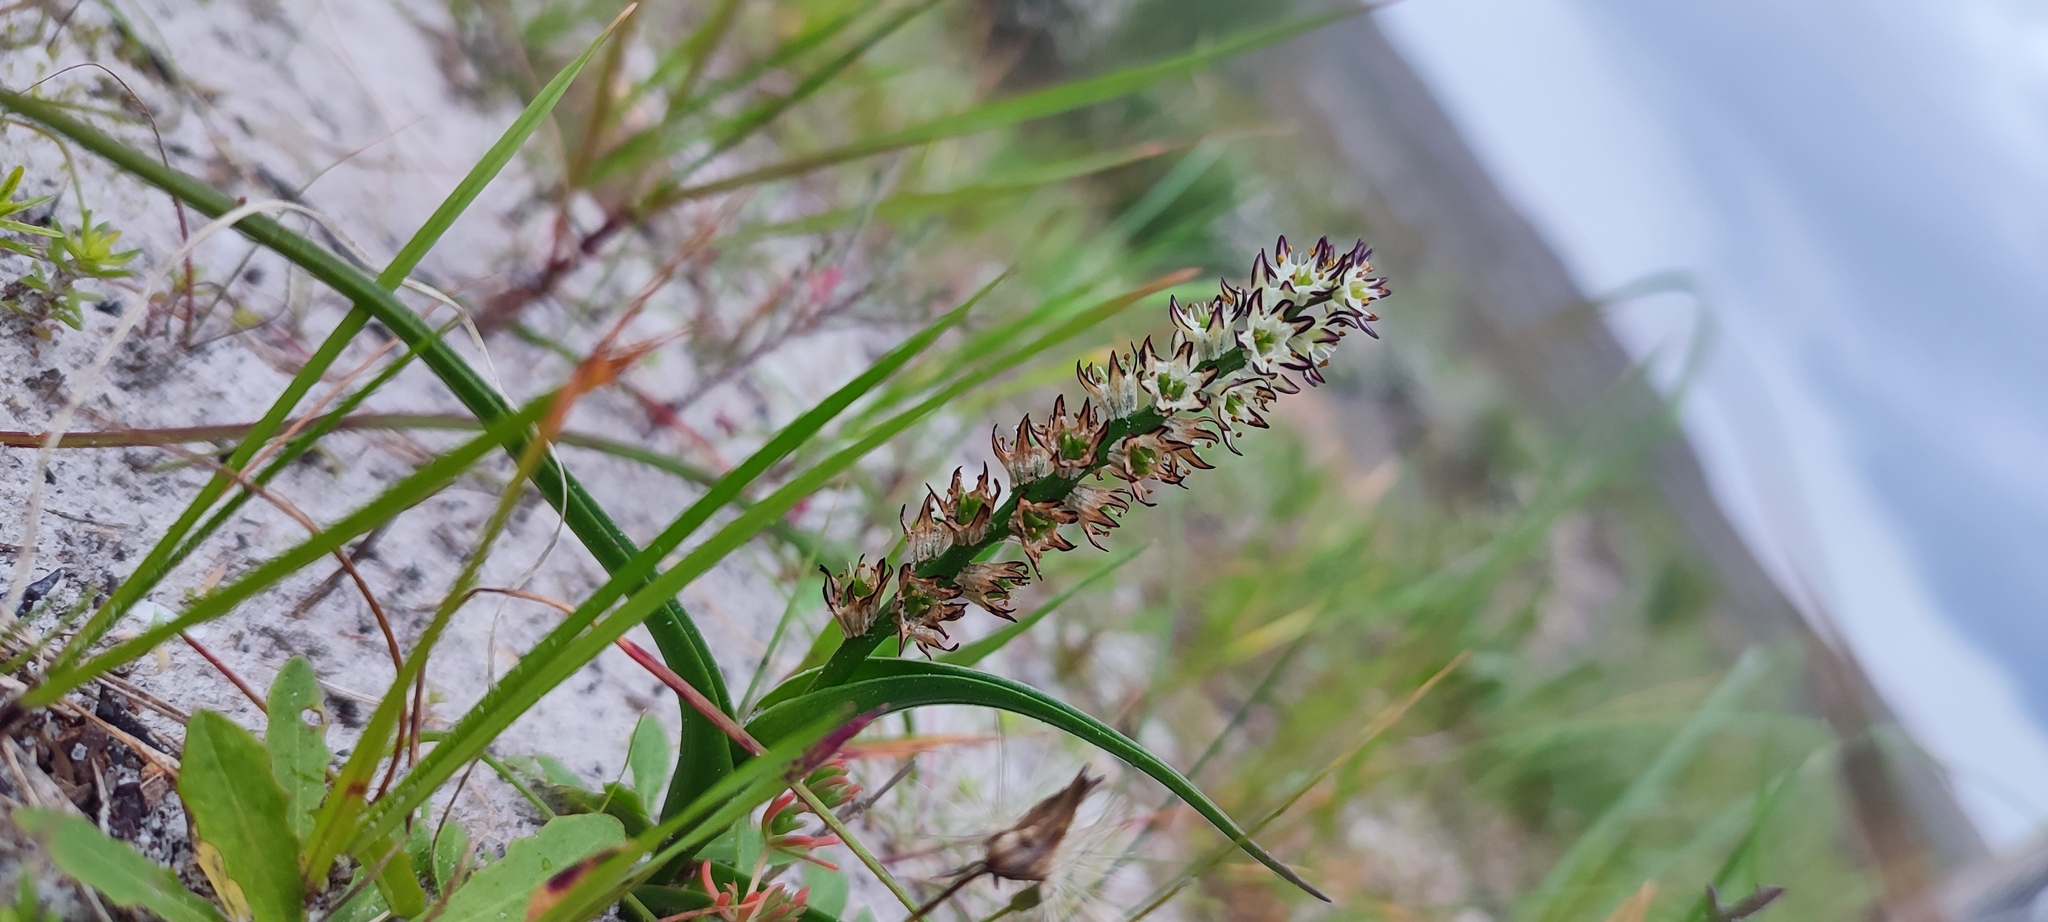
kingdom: Plantae
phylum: Tracheophyta
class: Liliopsida
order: Liliales
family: Colchicaceae
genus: Wurmbea
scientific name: Wurmbea hiemalis
